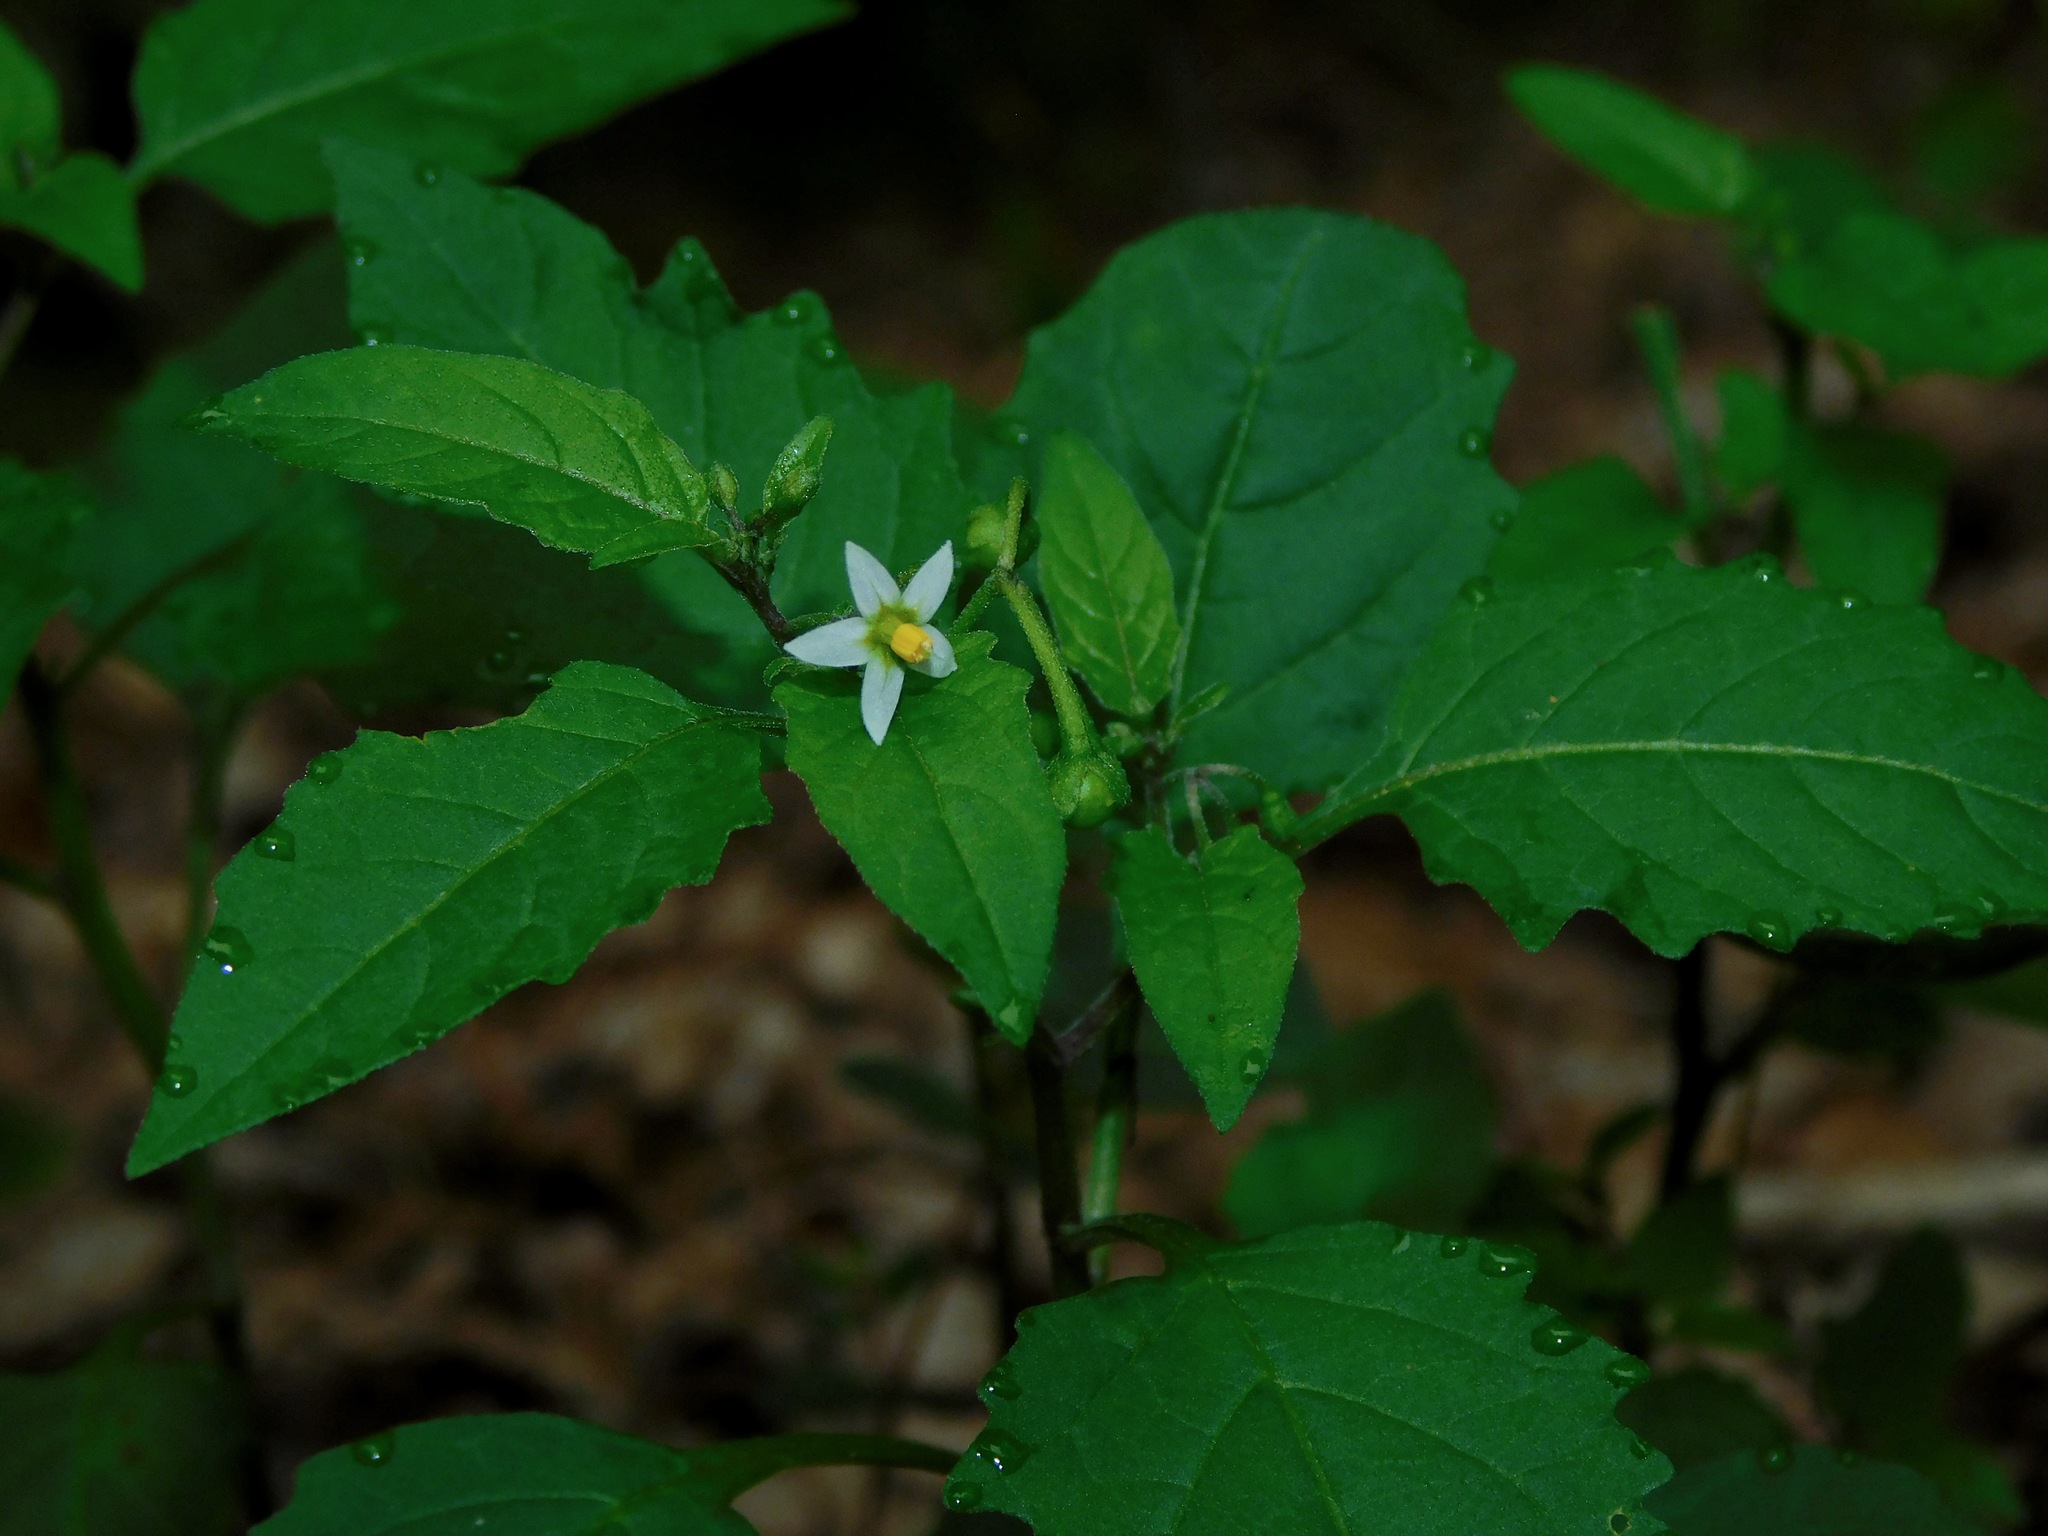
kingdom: Plantae
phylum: Tracheophyta
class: Magnoliopsida
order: Solanales
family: Solanaceae
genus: Solanum
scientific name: Solanum emulans
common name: Eastern black nightshade
